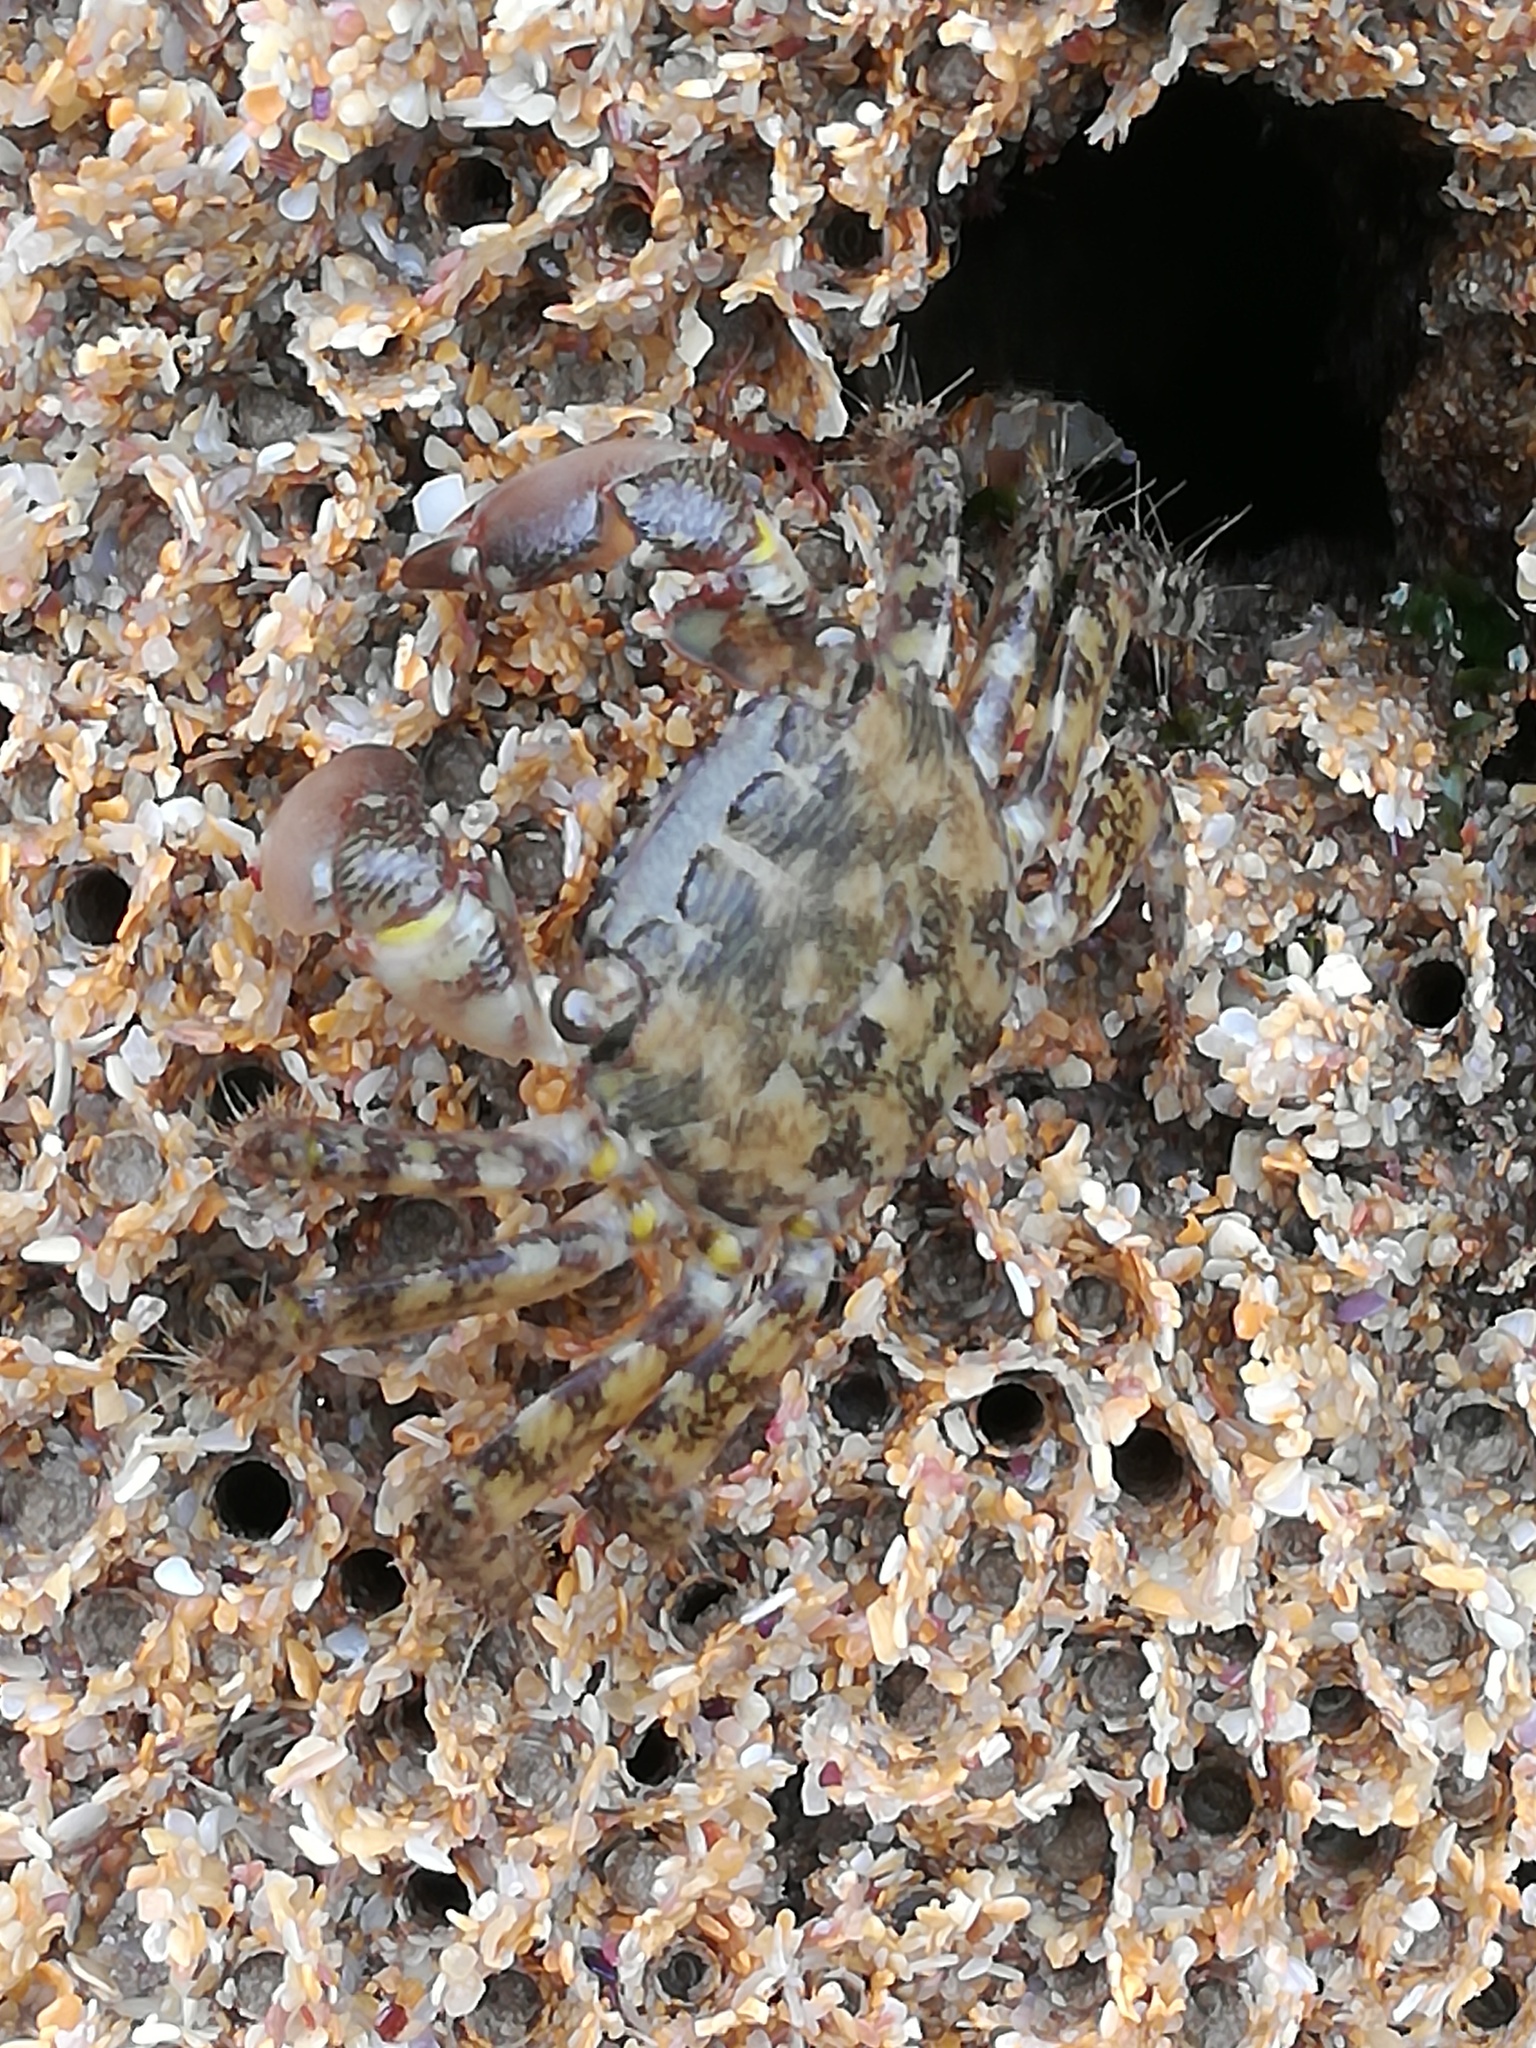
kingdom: Animalia
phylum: Arthropoda
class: Malacostraca
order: Decapoda
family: Grapsidae
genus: Pachygrapsus
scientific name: Pachygrapsus marmoratus
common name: Marbled rock crab
